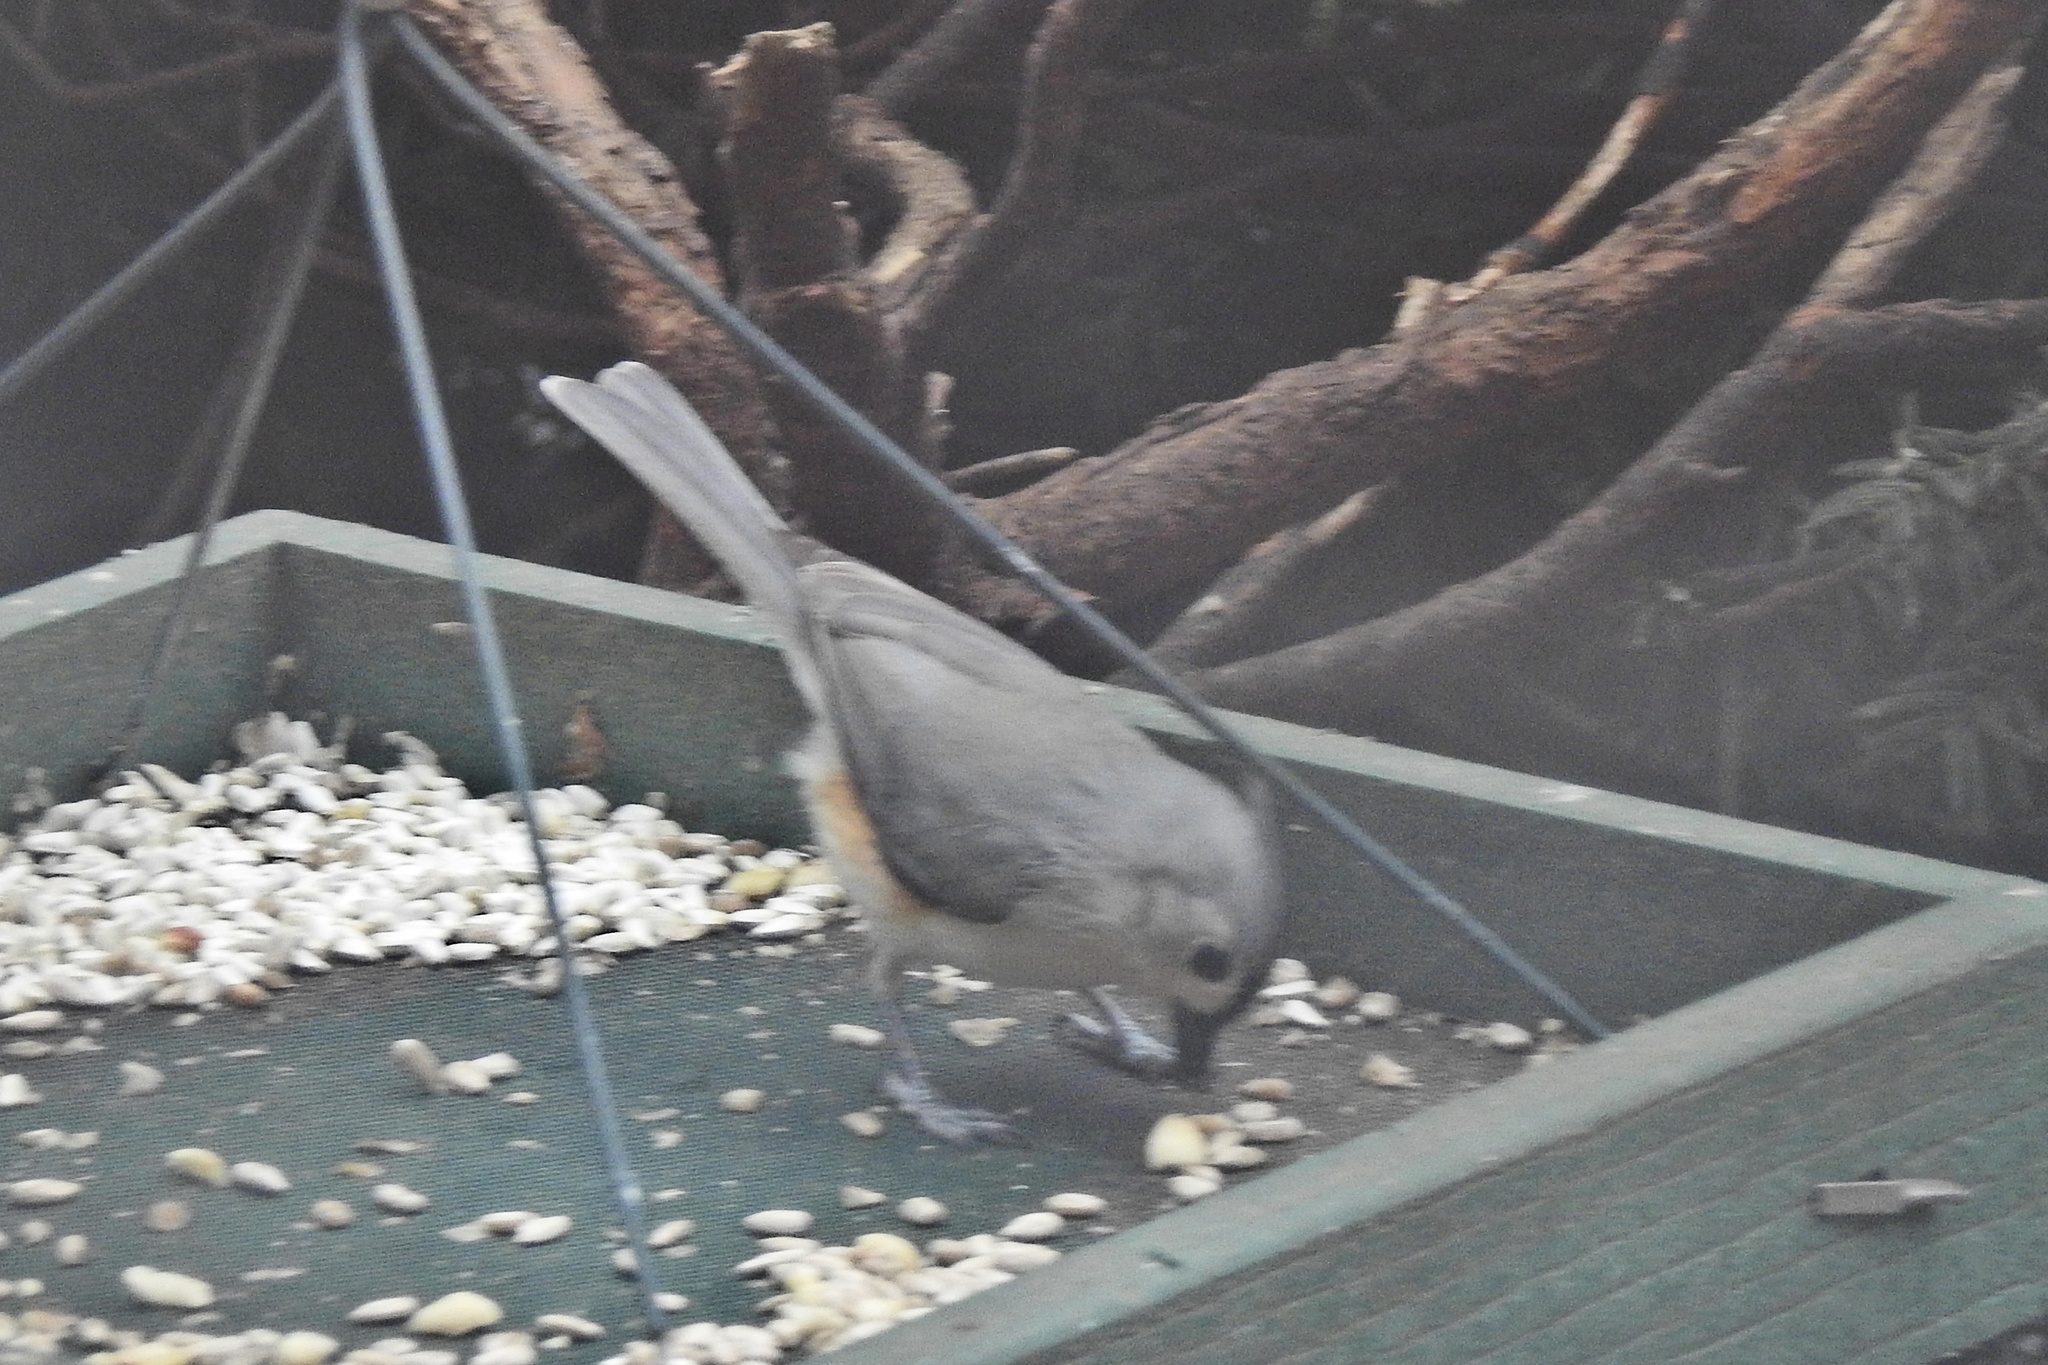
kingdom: Animalia
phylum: Chordata
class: Aves
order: Passeriformes
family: Paridae
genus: Baeolophus
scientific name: Baeolophus bicolor
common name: Tufted titmouse
